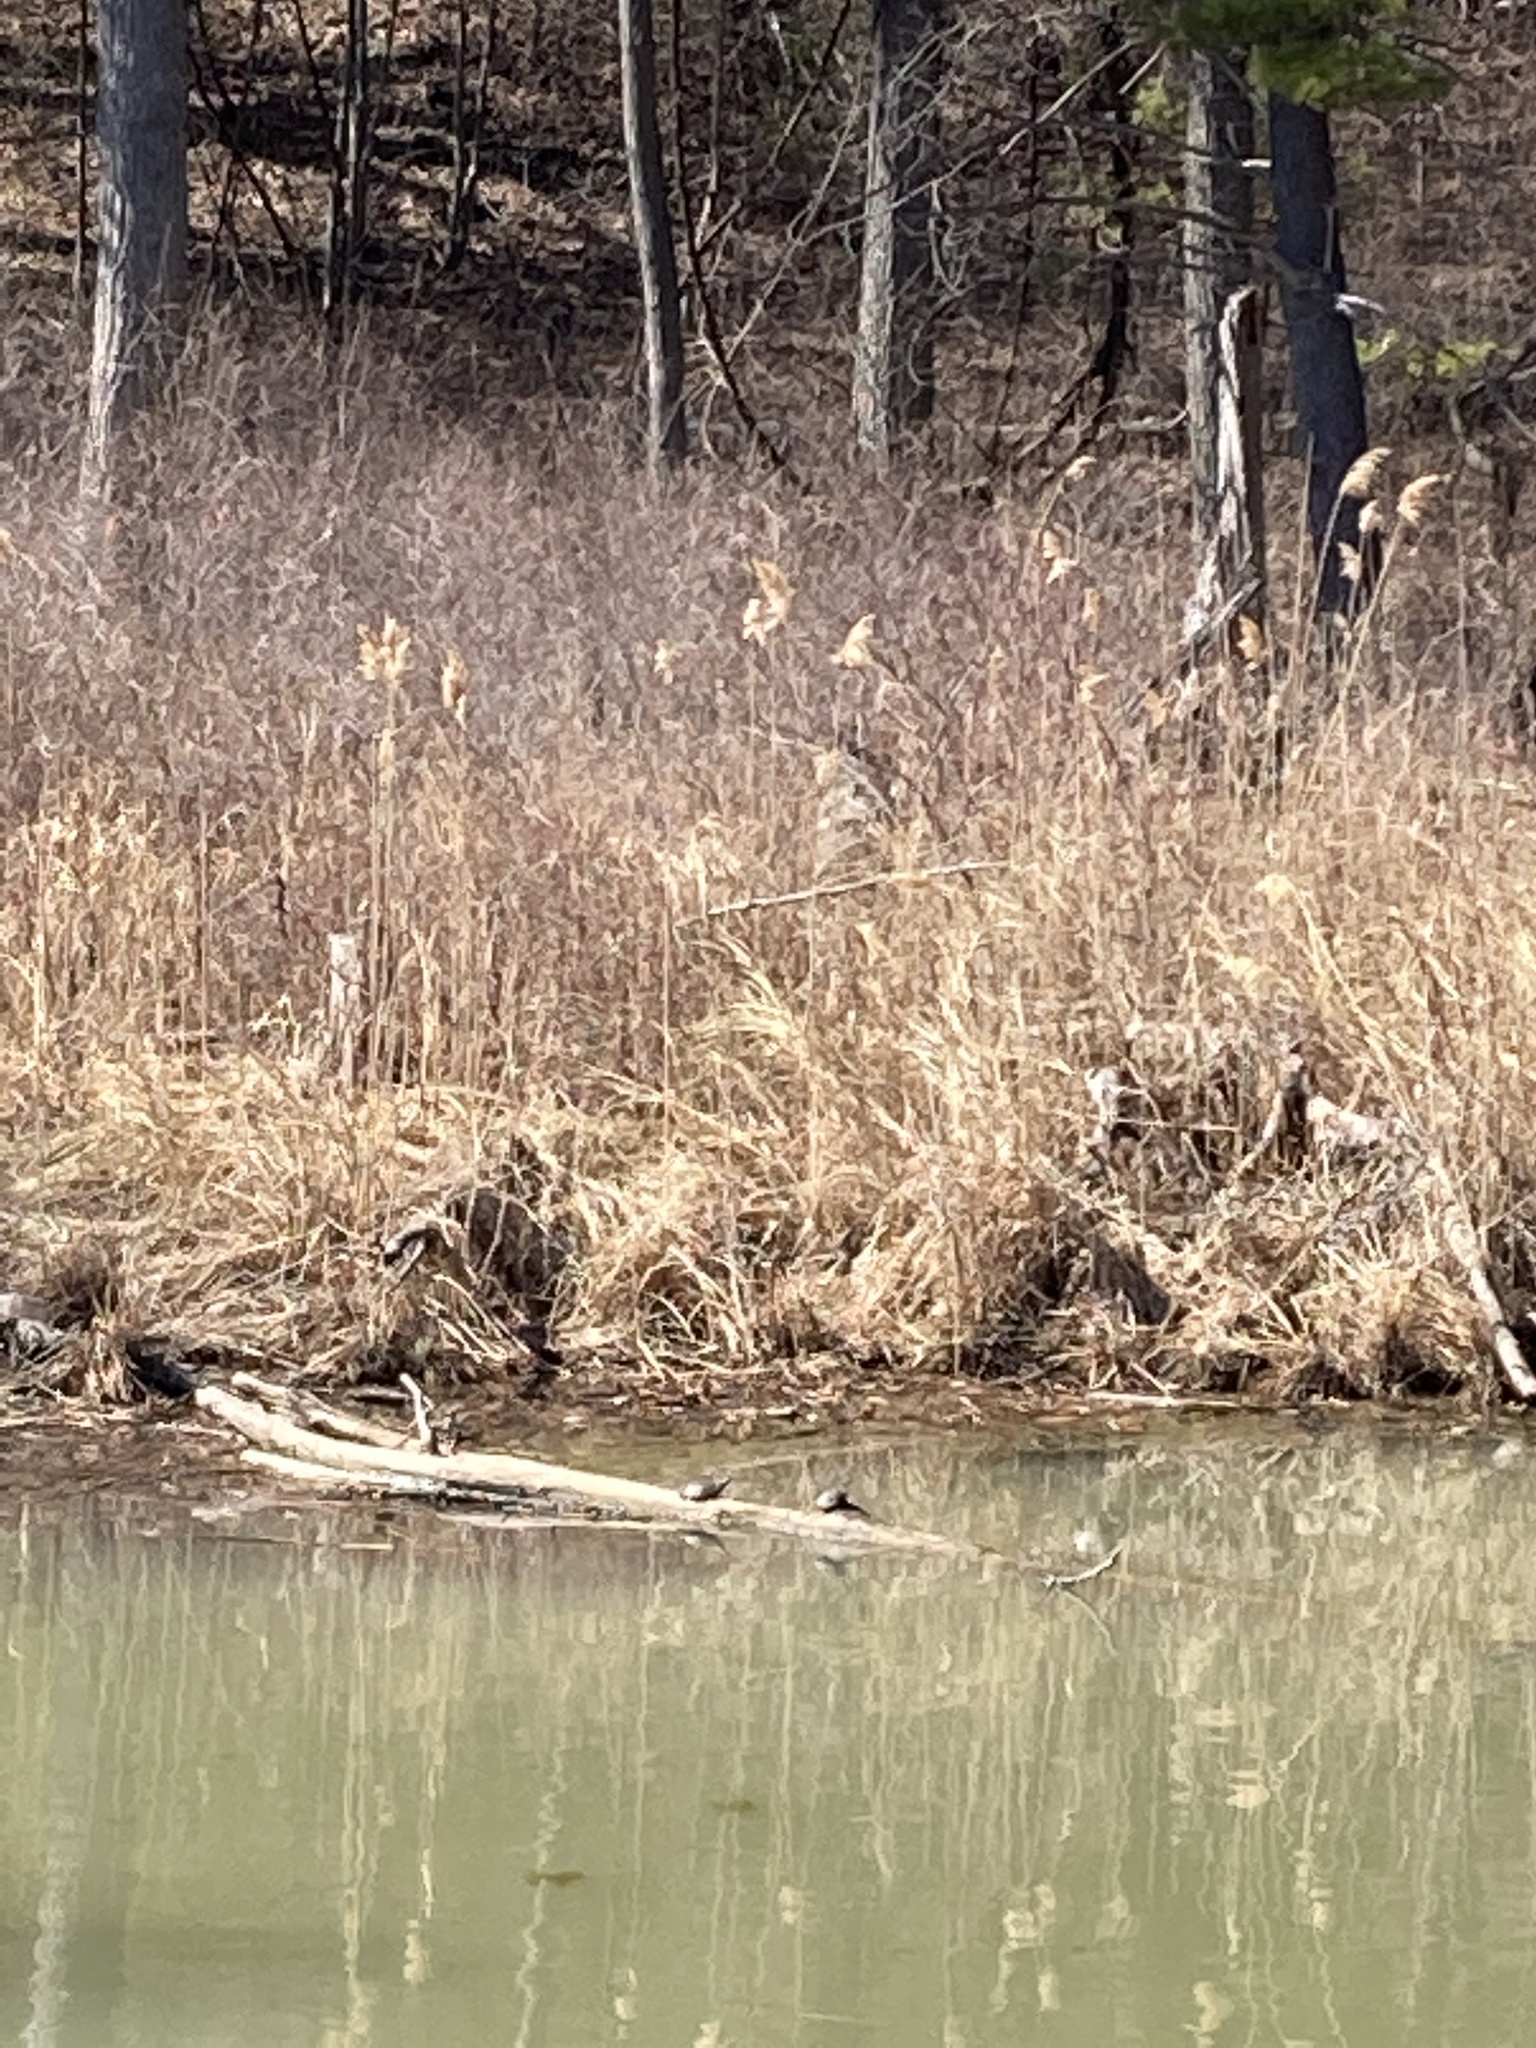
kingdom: Animalia
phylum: Chordata
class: Testudines
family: Emydidae
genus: Chrysemys
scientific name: Chrysemys picta
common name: Painted turtle
